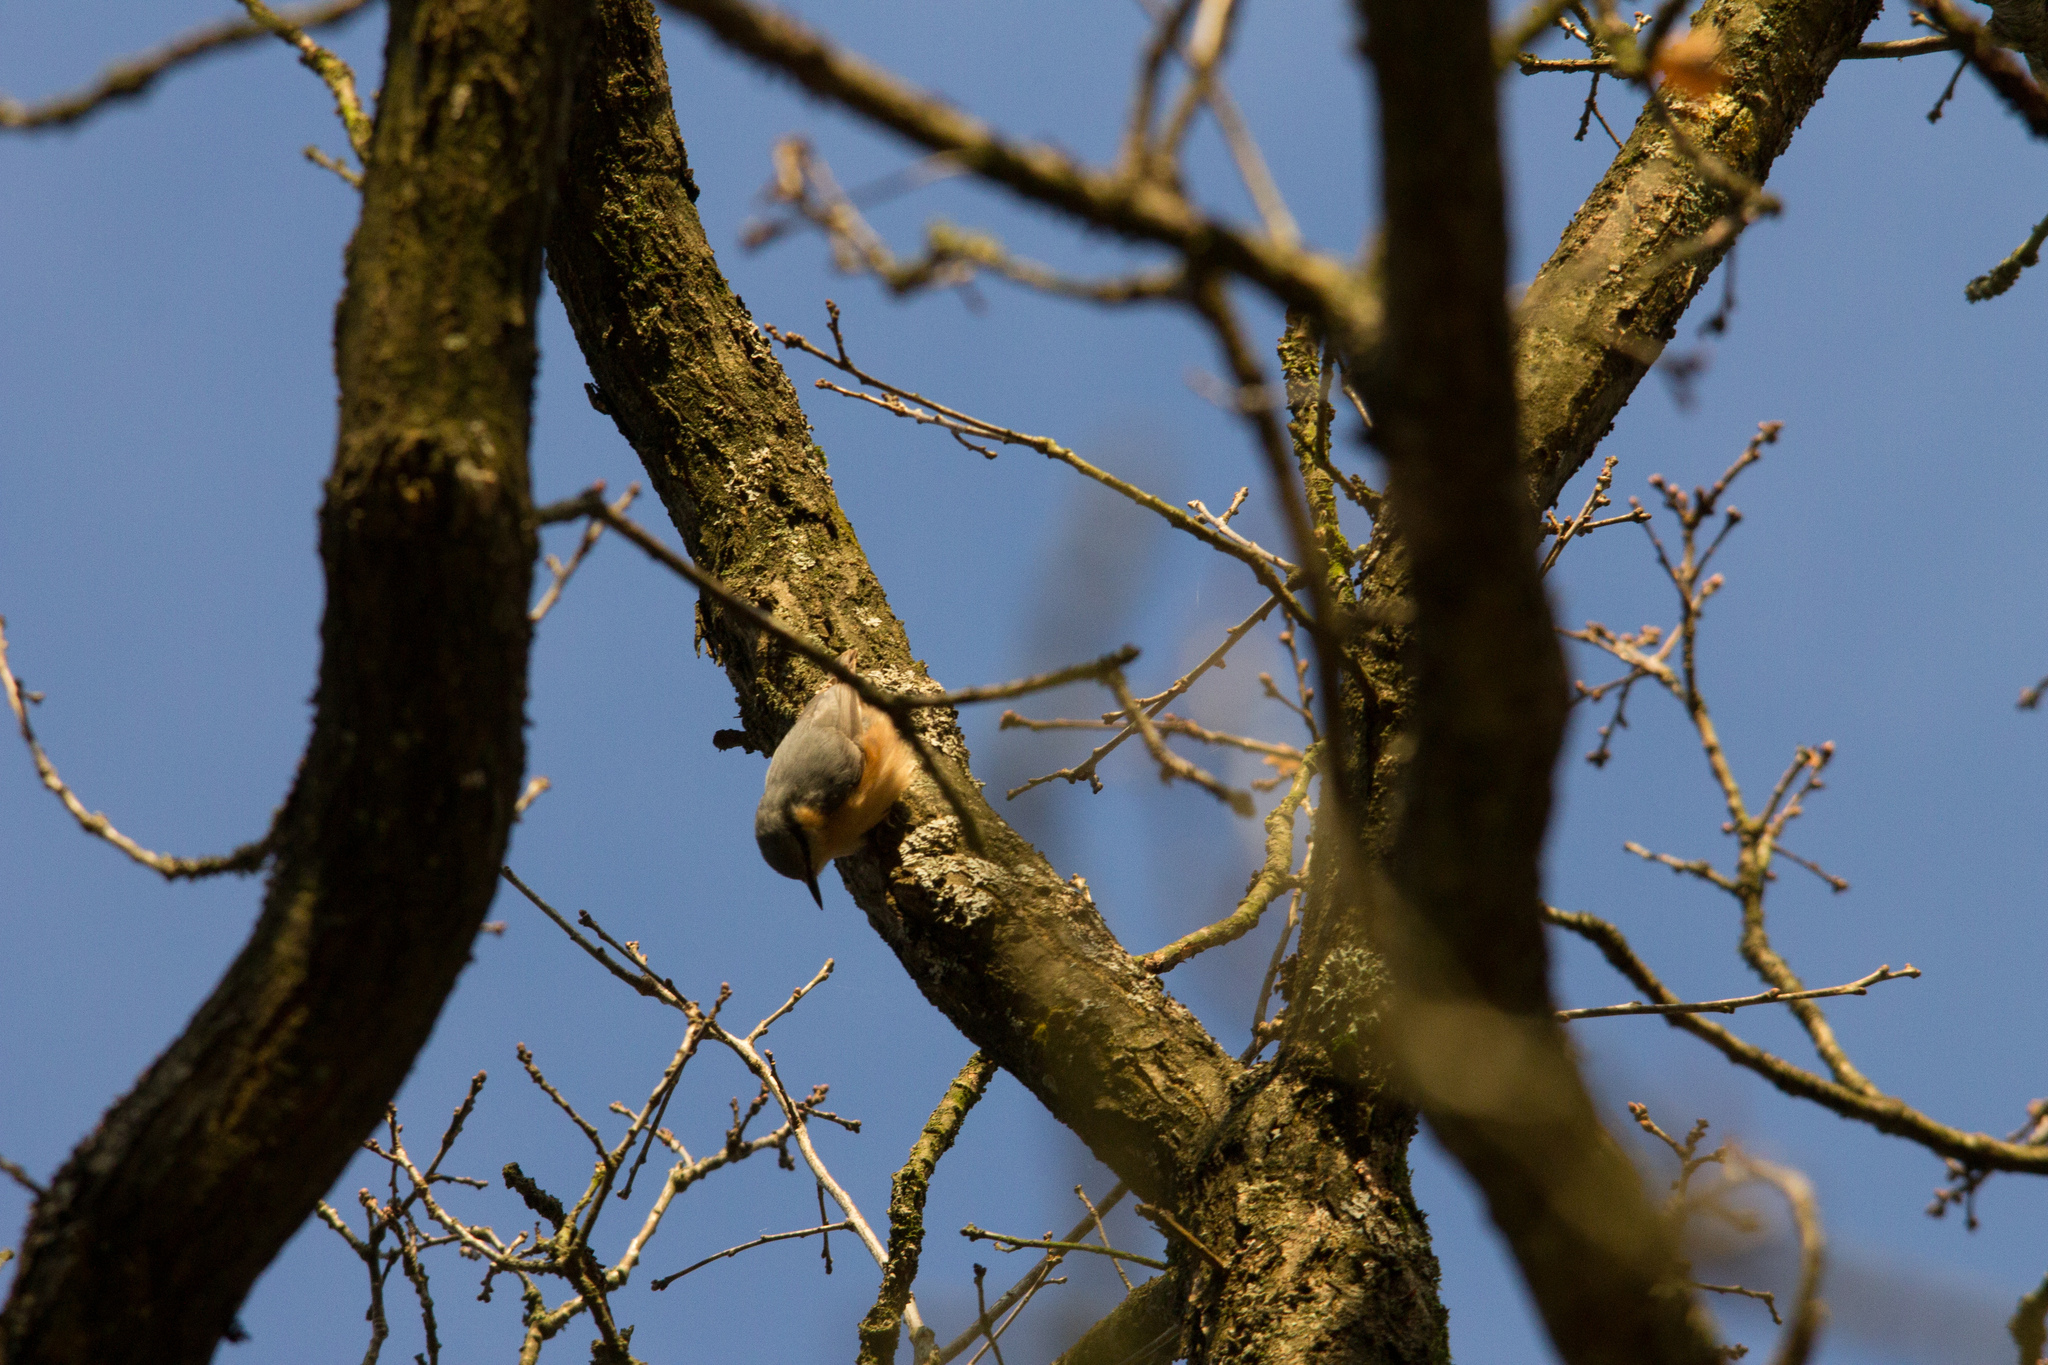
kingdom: Animalia
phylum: Chordata
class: Aves
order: Passeriformes
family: Sittidae
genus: Sitta
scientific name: Sitta europaea
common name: Eurasian nuthatch
